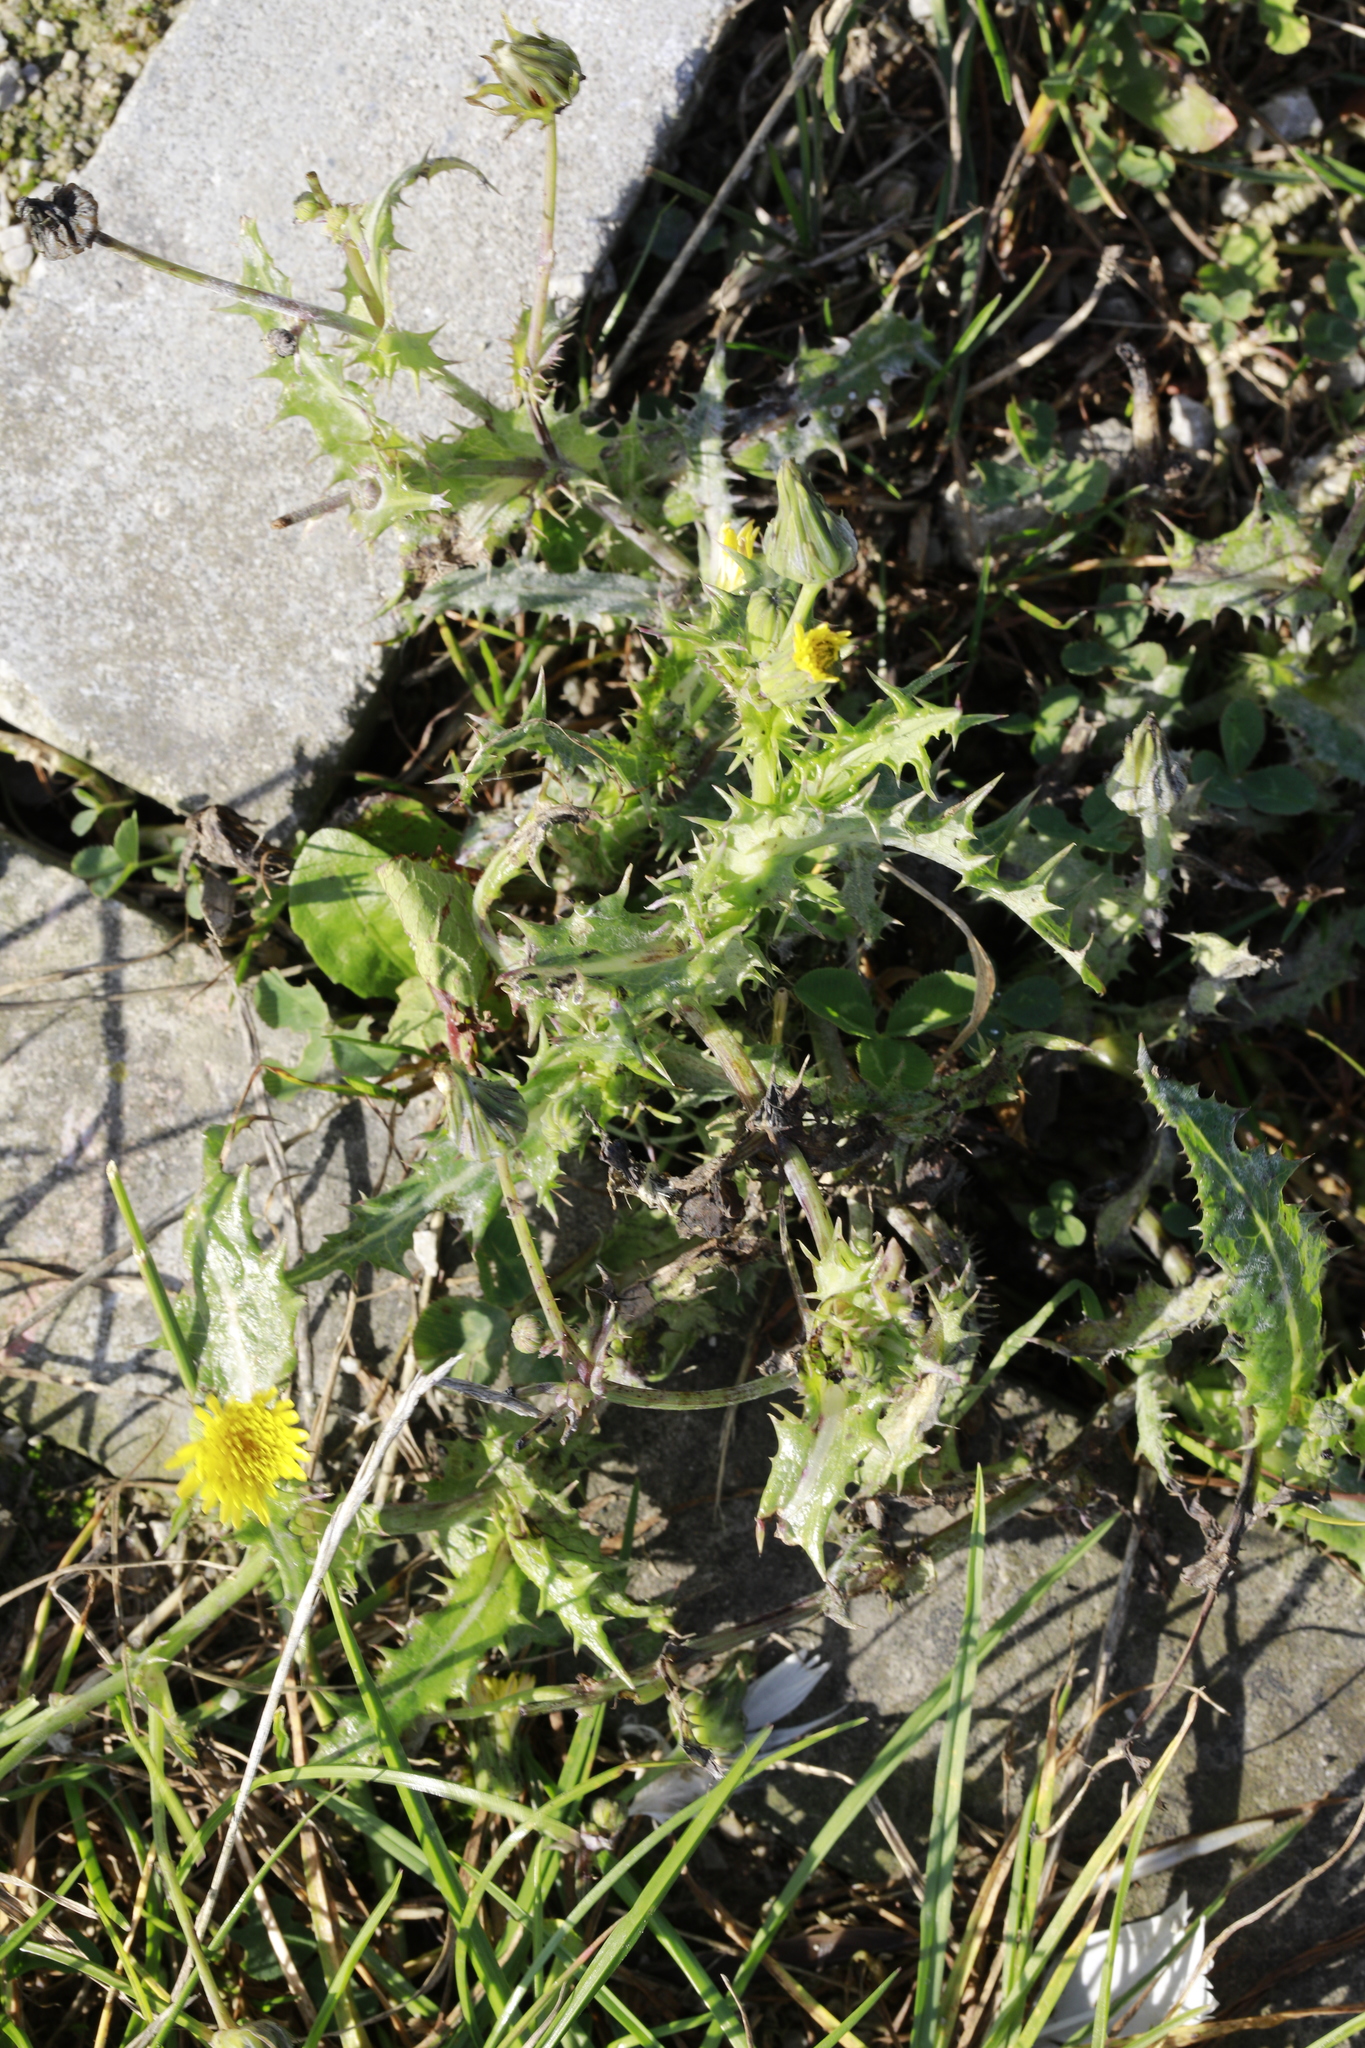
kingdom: Plantae
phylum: Tracheophyta
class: Magnoliopsida
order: Asterales
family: Asteraceae
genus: Sonchus
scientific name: Sonchus asper
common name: Prickly sow-thistle
